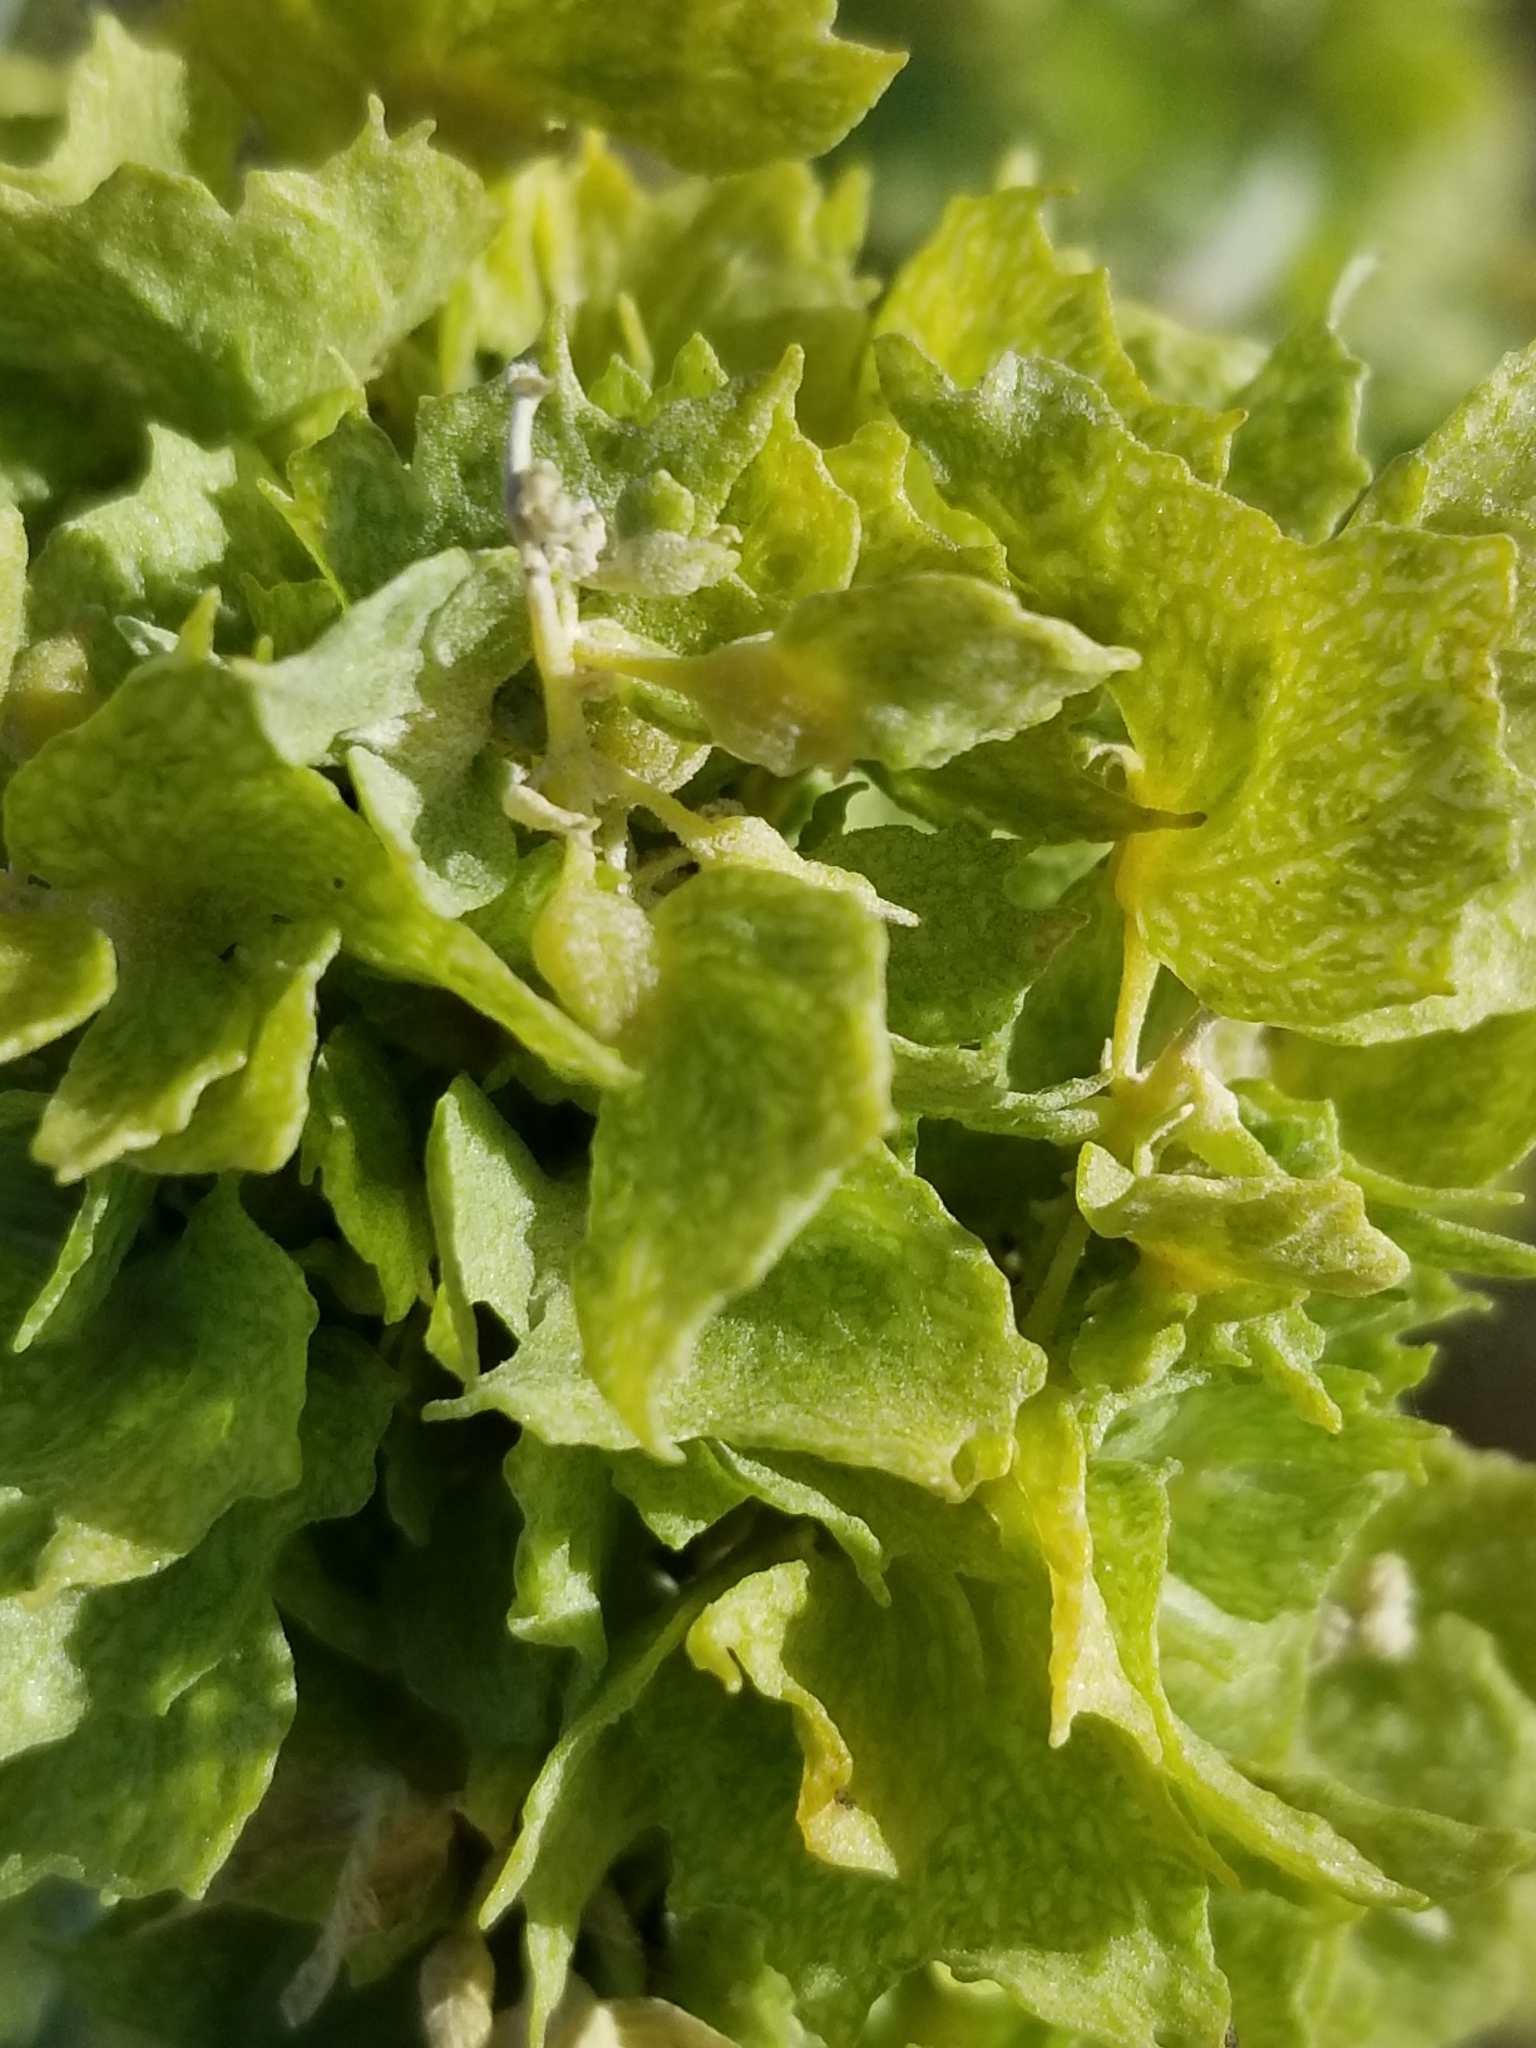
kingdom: Plantae
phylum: Tracheophyta
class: Magnoliopsida
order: Caryophyllales
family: Amaranthaceae
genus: Atriplex
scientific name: Atriplex canescens
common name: Four-wing saltbush
